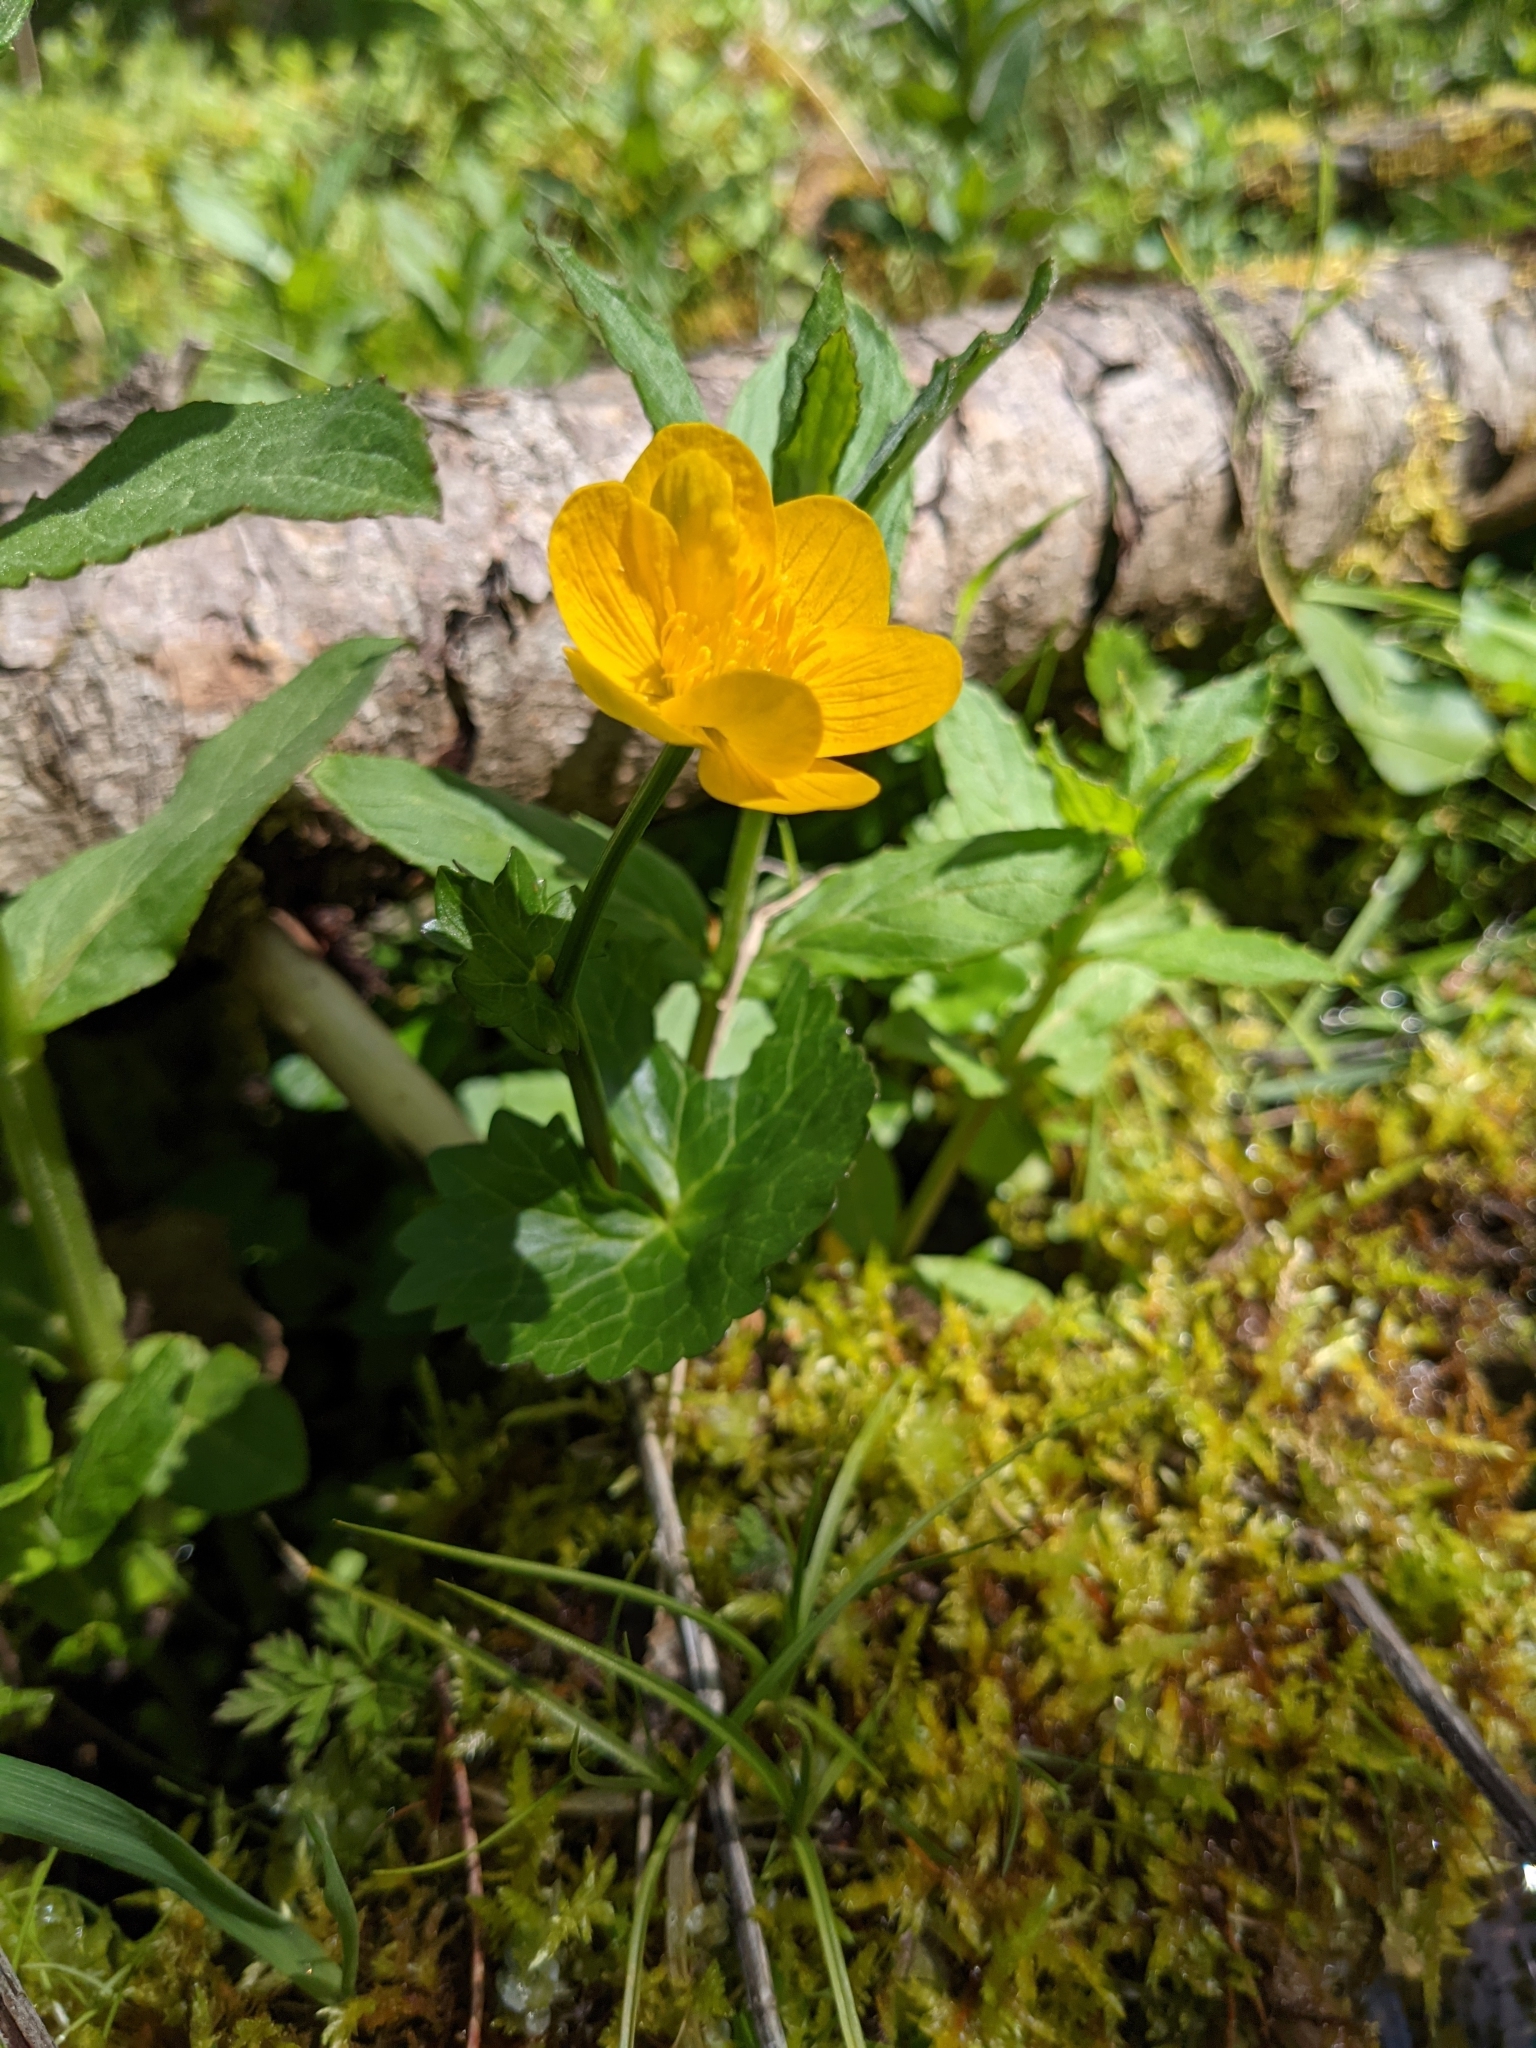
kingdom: Plantae
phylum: Tracheophyta
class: Magnoliopsida
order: Ranunculales
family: Ranunculaceae
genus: Caltha
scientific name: Caltha palustris
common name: Marsh marigold
